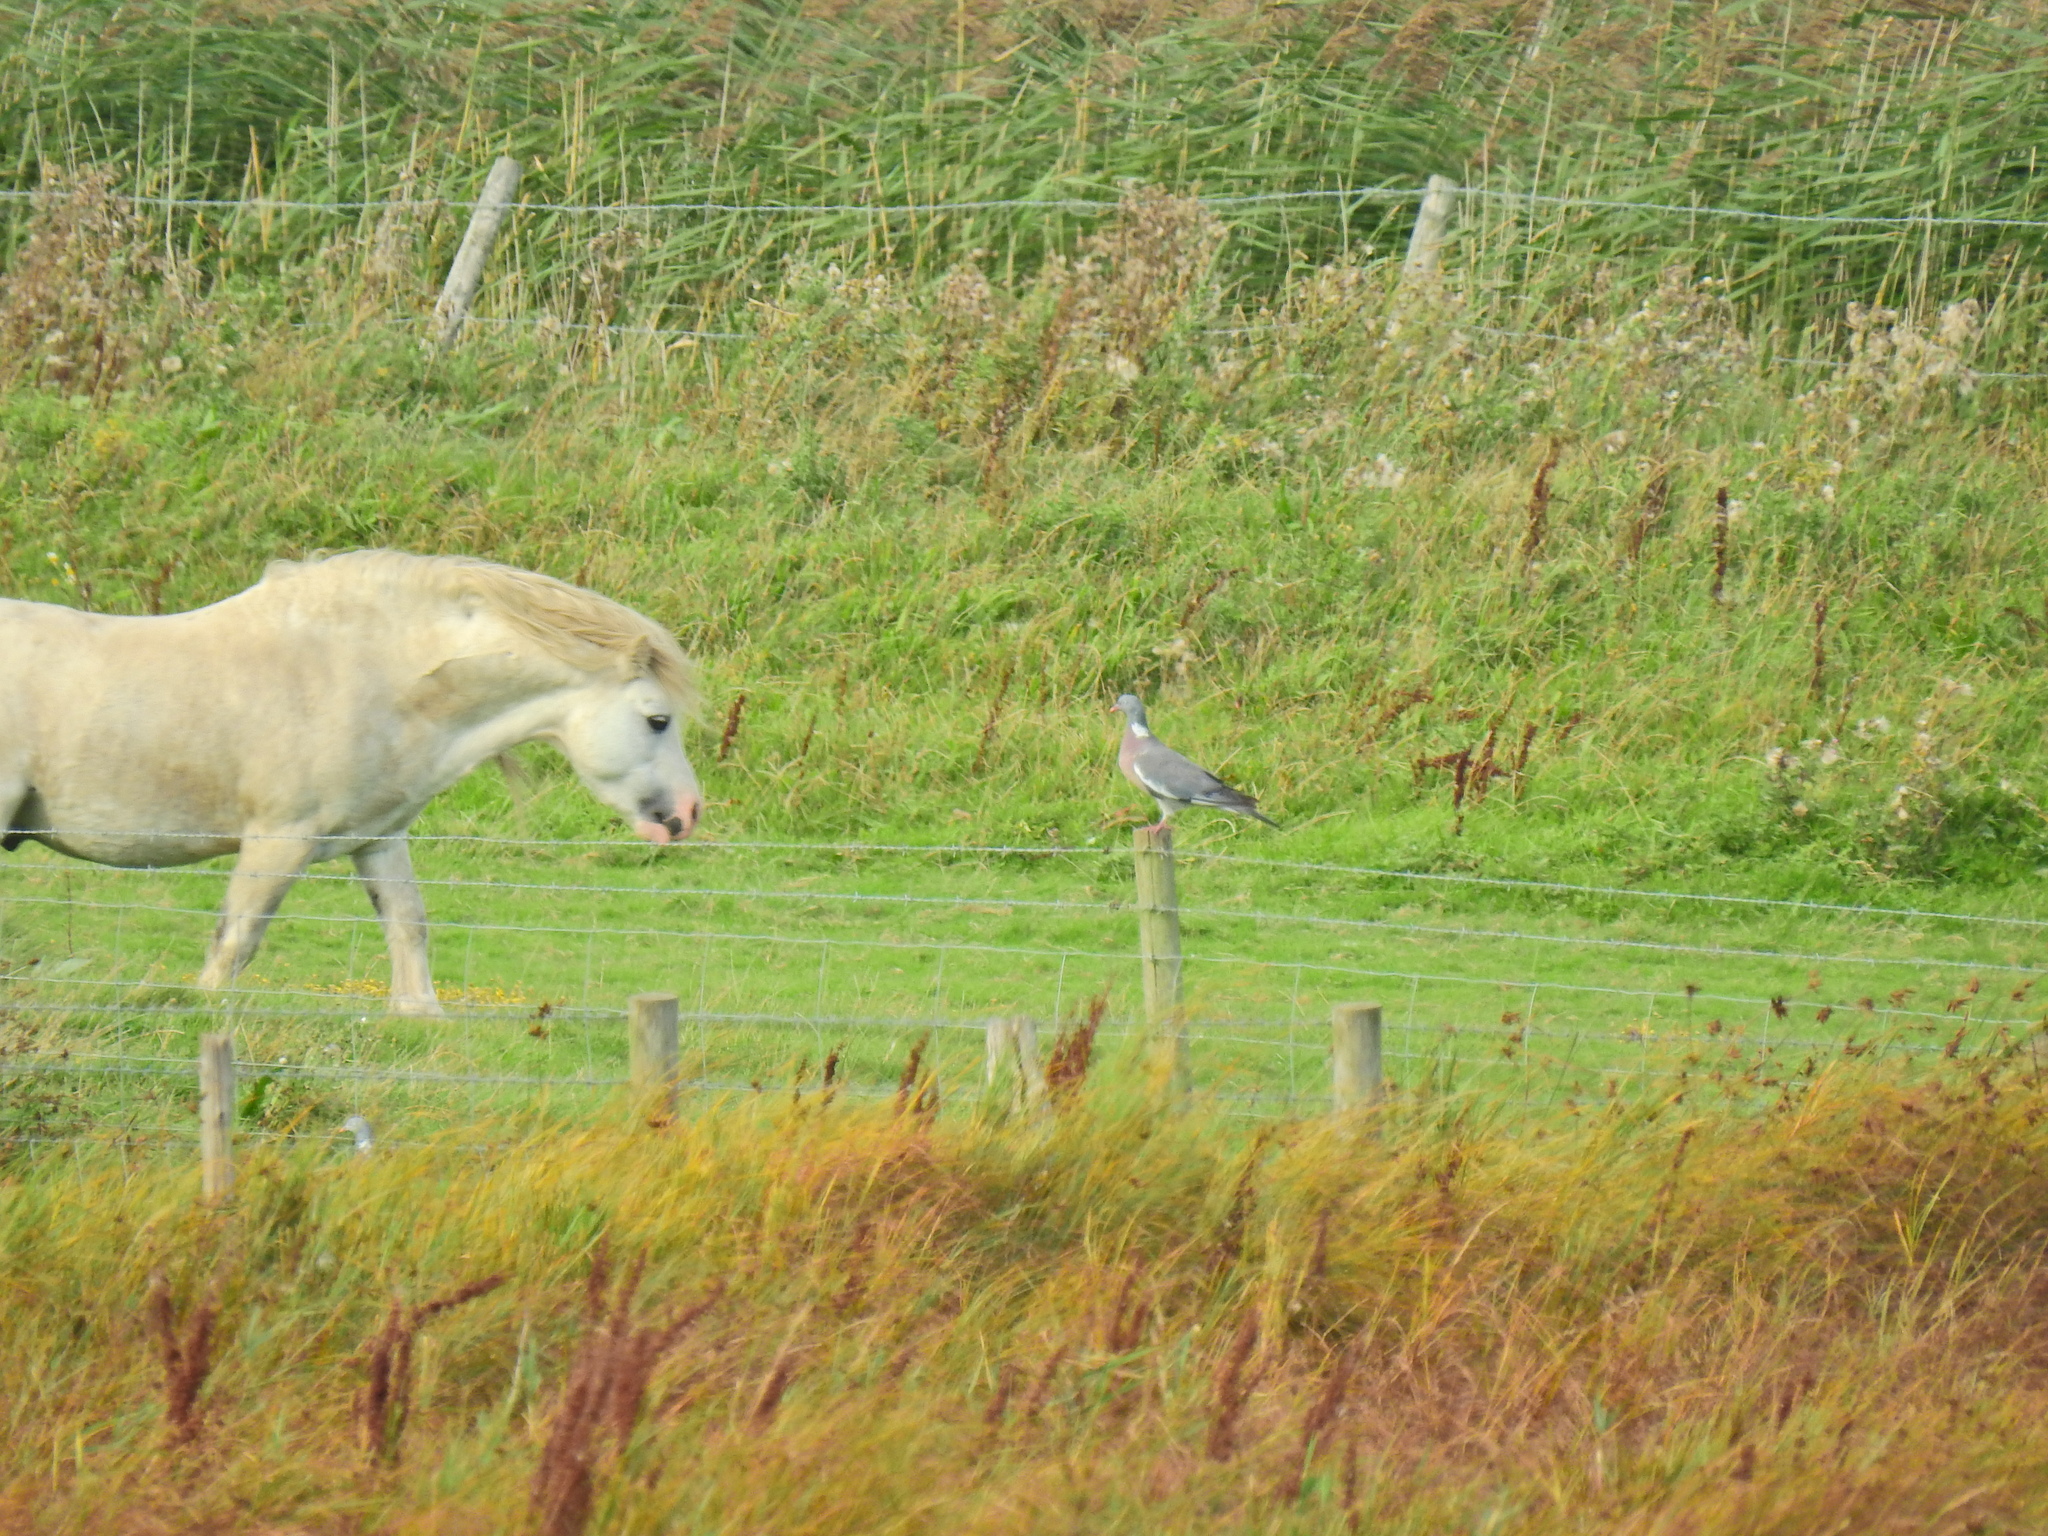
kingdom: Animalia
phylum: Chordata
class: Aves
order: Columbiformes
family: Columbidae
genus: Columba
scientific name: Columba palumbus
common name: Common wood pigeon
